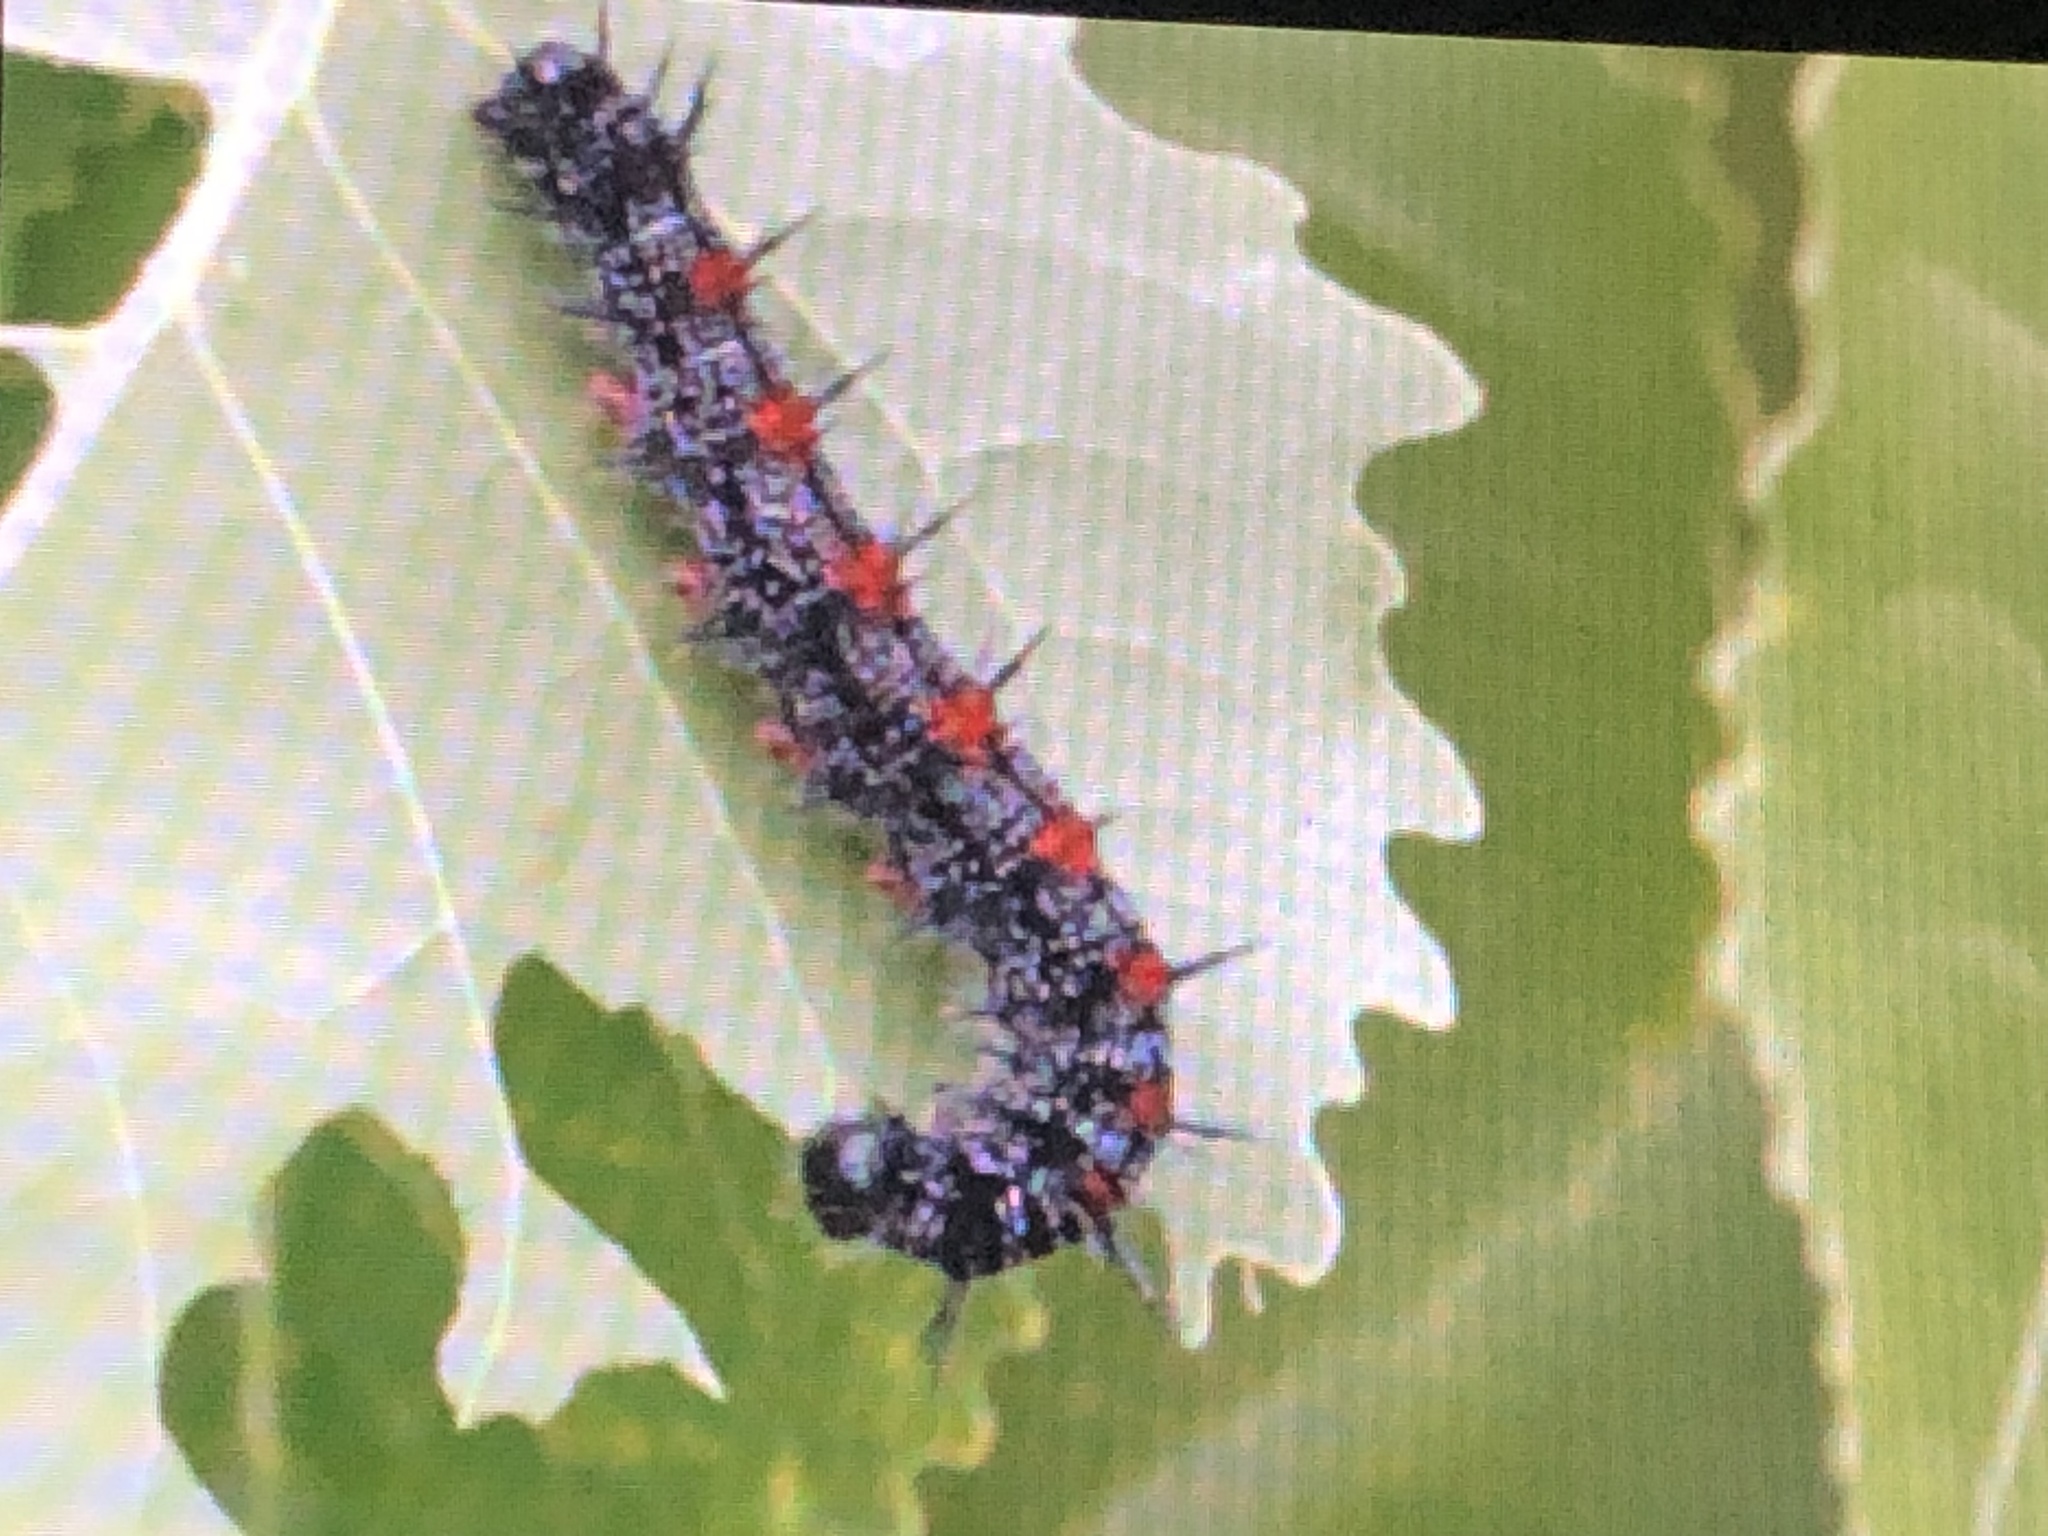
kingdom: Animalia
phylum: Arthropoda
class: Insecta
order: Lepidoptera
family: Nymphalidae
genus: Nymphalis
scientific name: Nymphalis antiopa
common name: Camberwell beauty
